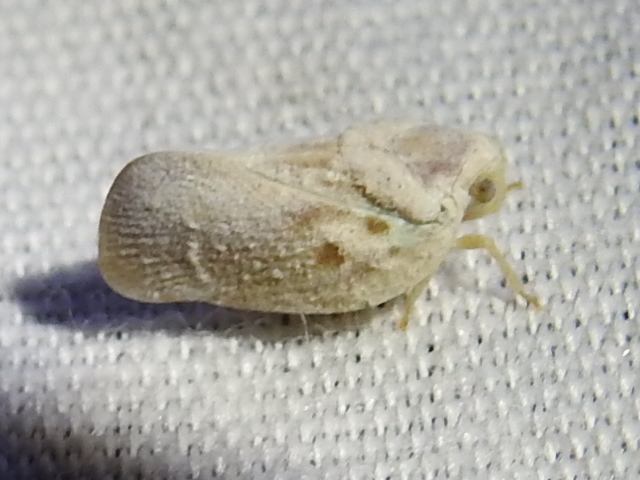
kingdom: Animalia
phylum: Arthropoda
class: Insecta
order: Hemiptera
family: Flatidae
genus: Metcalfa
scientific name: Metcalfa pruinosa
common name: Citrus flatid planthopper
